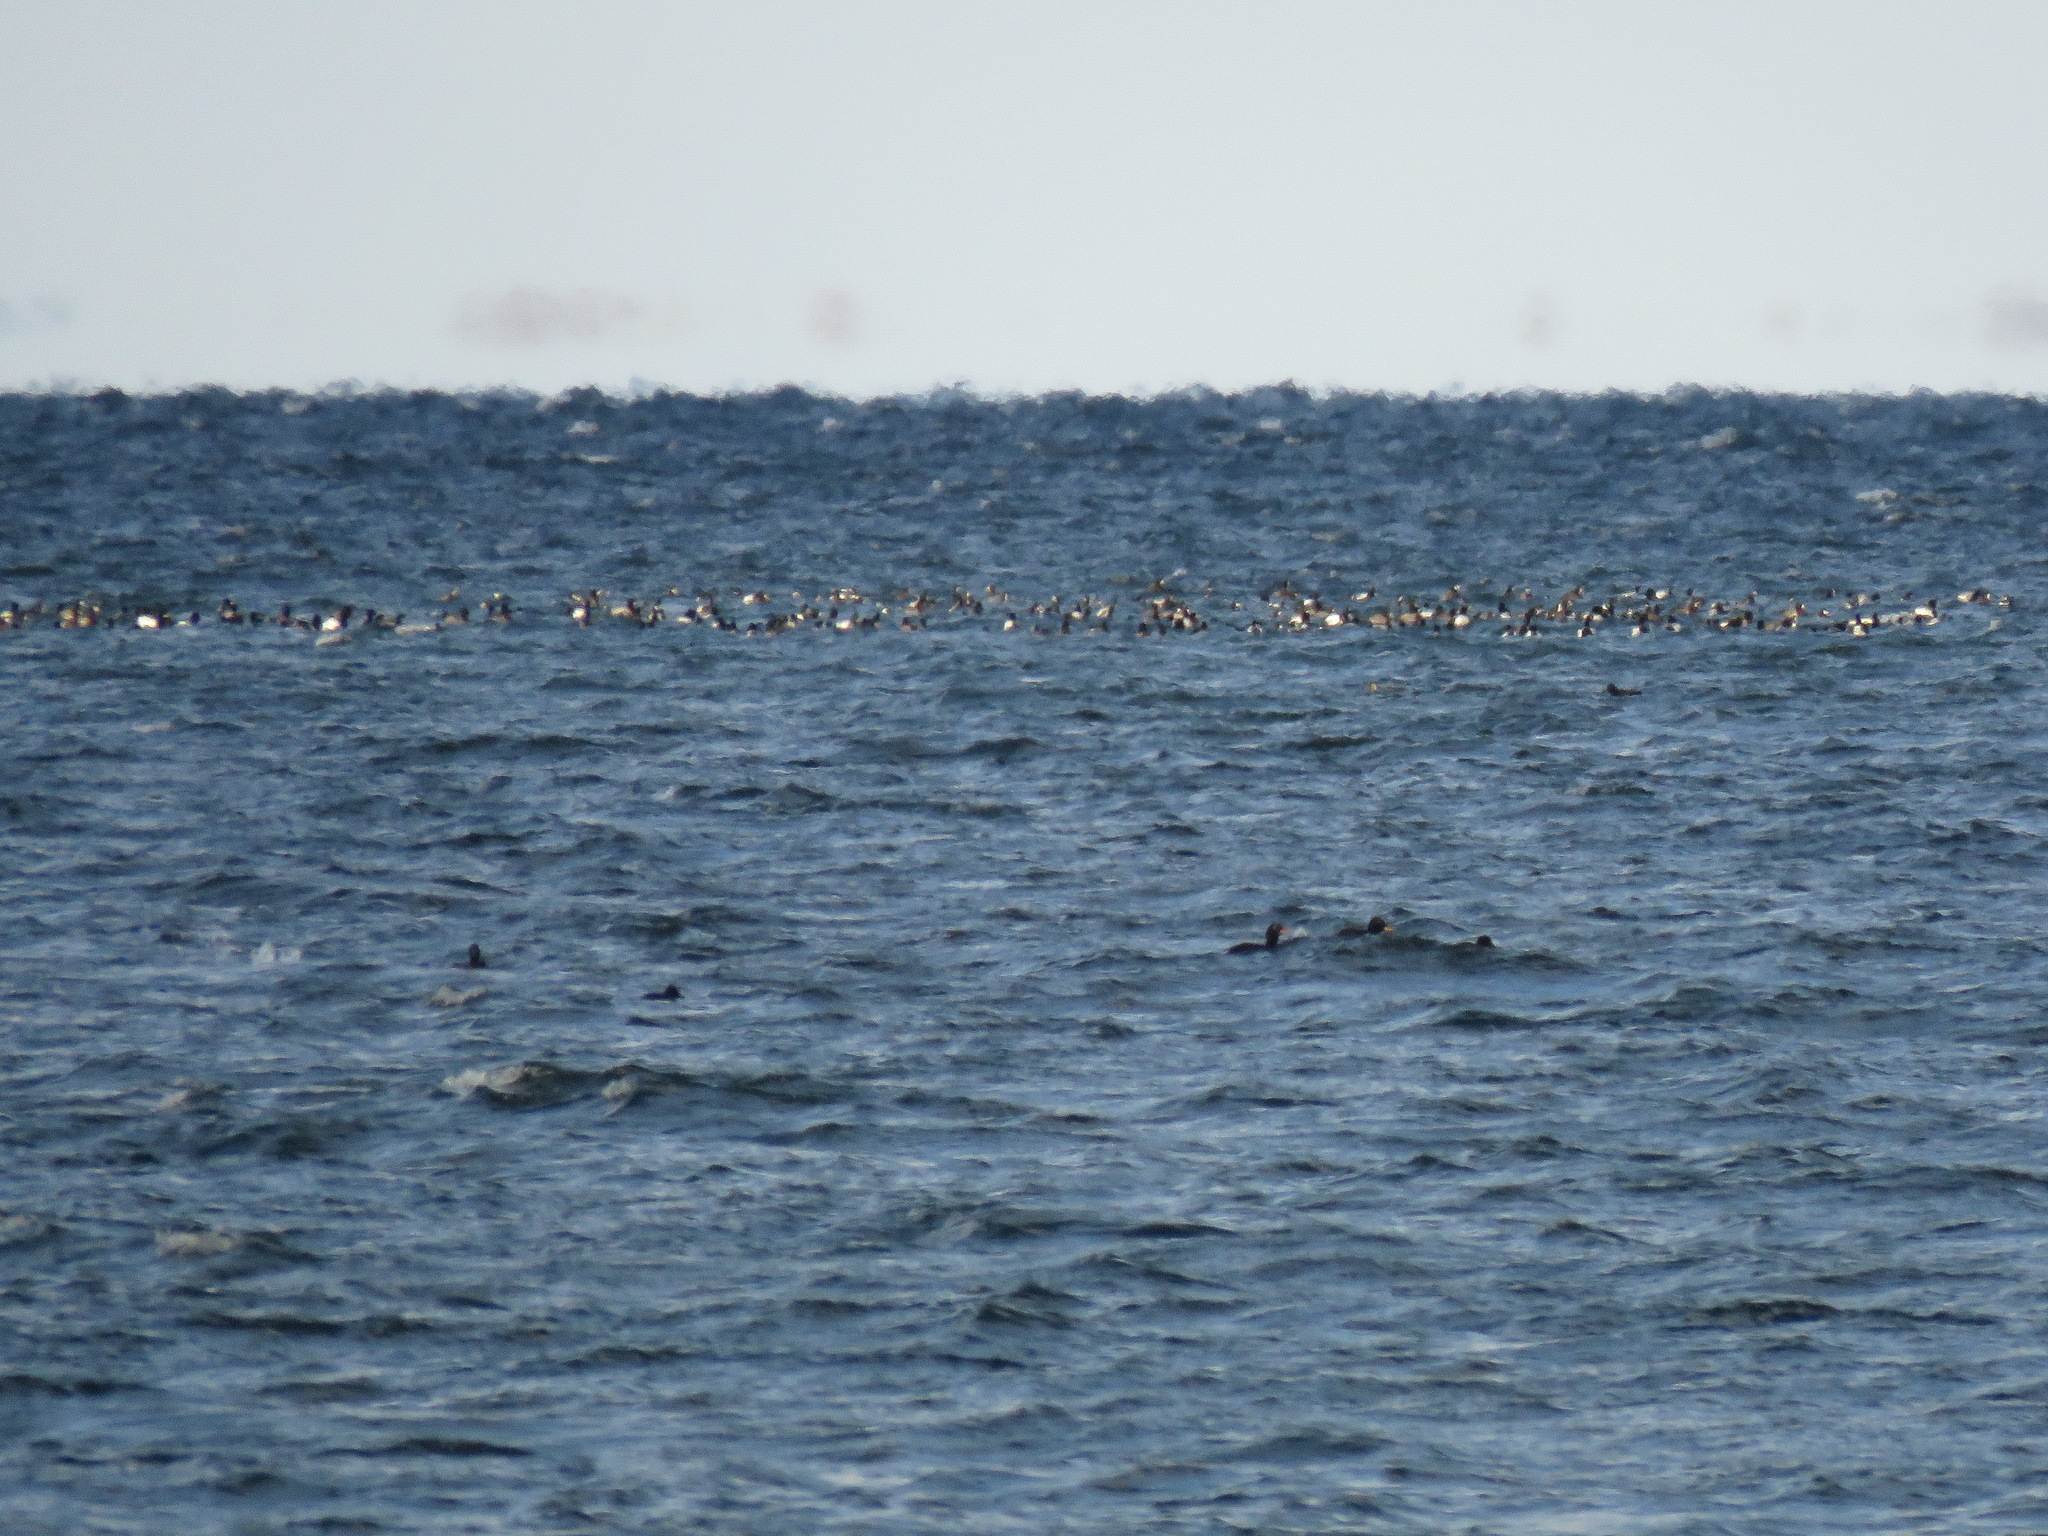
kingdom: Animalia
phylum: Chordata
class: Aves
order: Anseriformes
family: Anatidae
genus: Aythya
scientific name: Aythya marila
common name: Greater scaup
